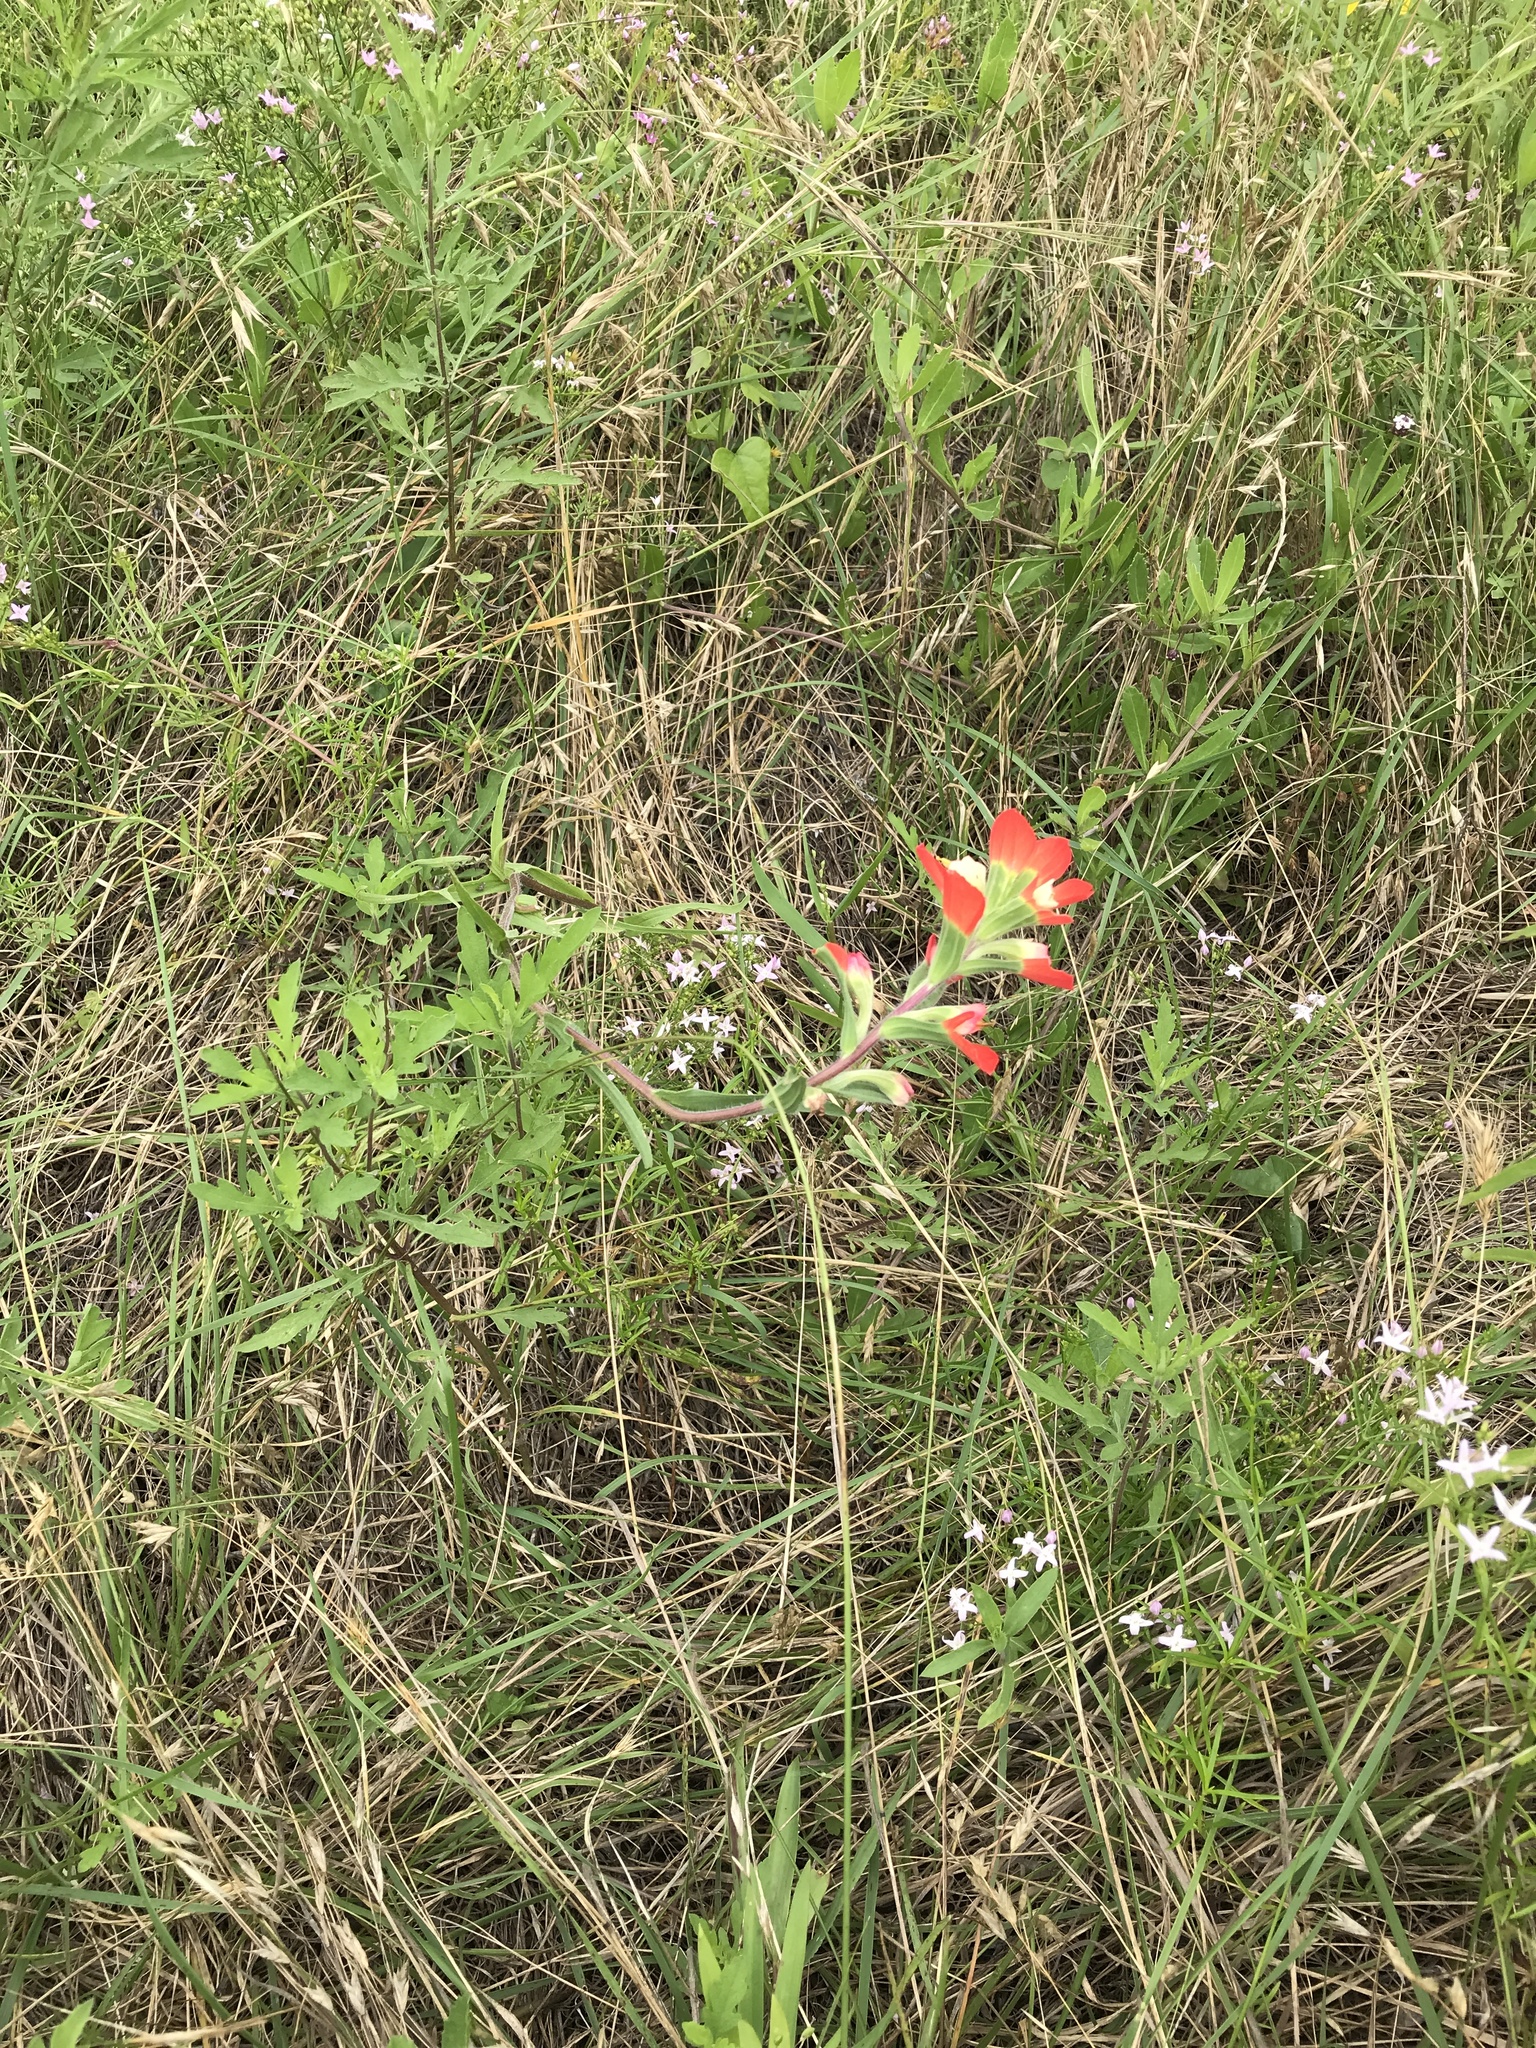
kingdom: Plantae
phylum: Tracheophyta
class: Magnoliopsida
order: Lamiales
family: Orobanchaceae
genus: Castilleja
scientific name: Castilleja indivisa
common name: Texas paintbrush
